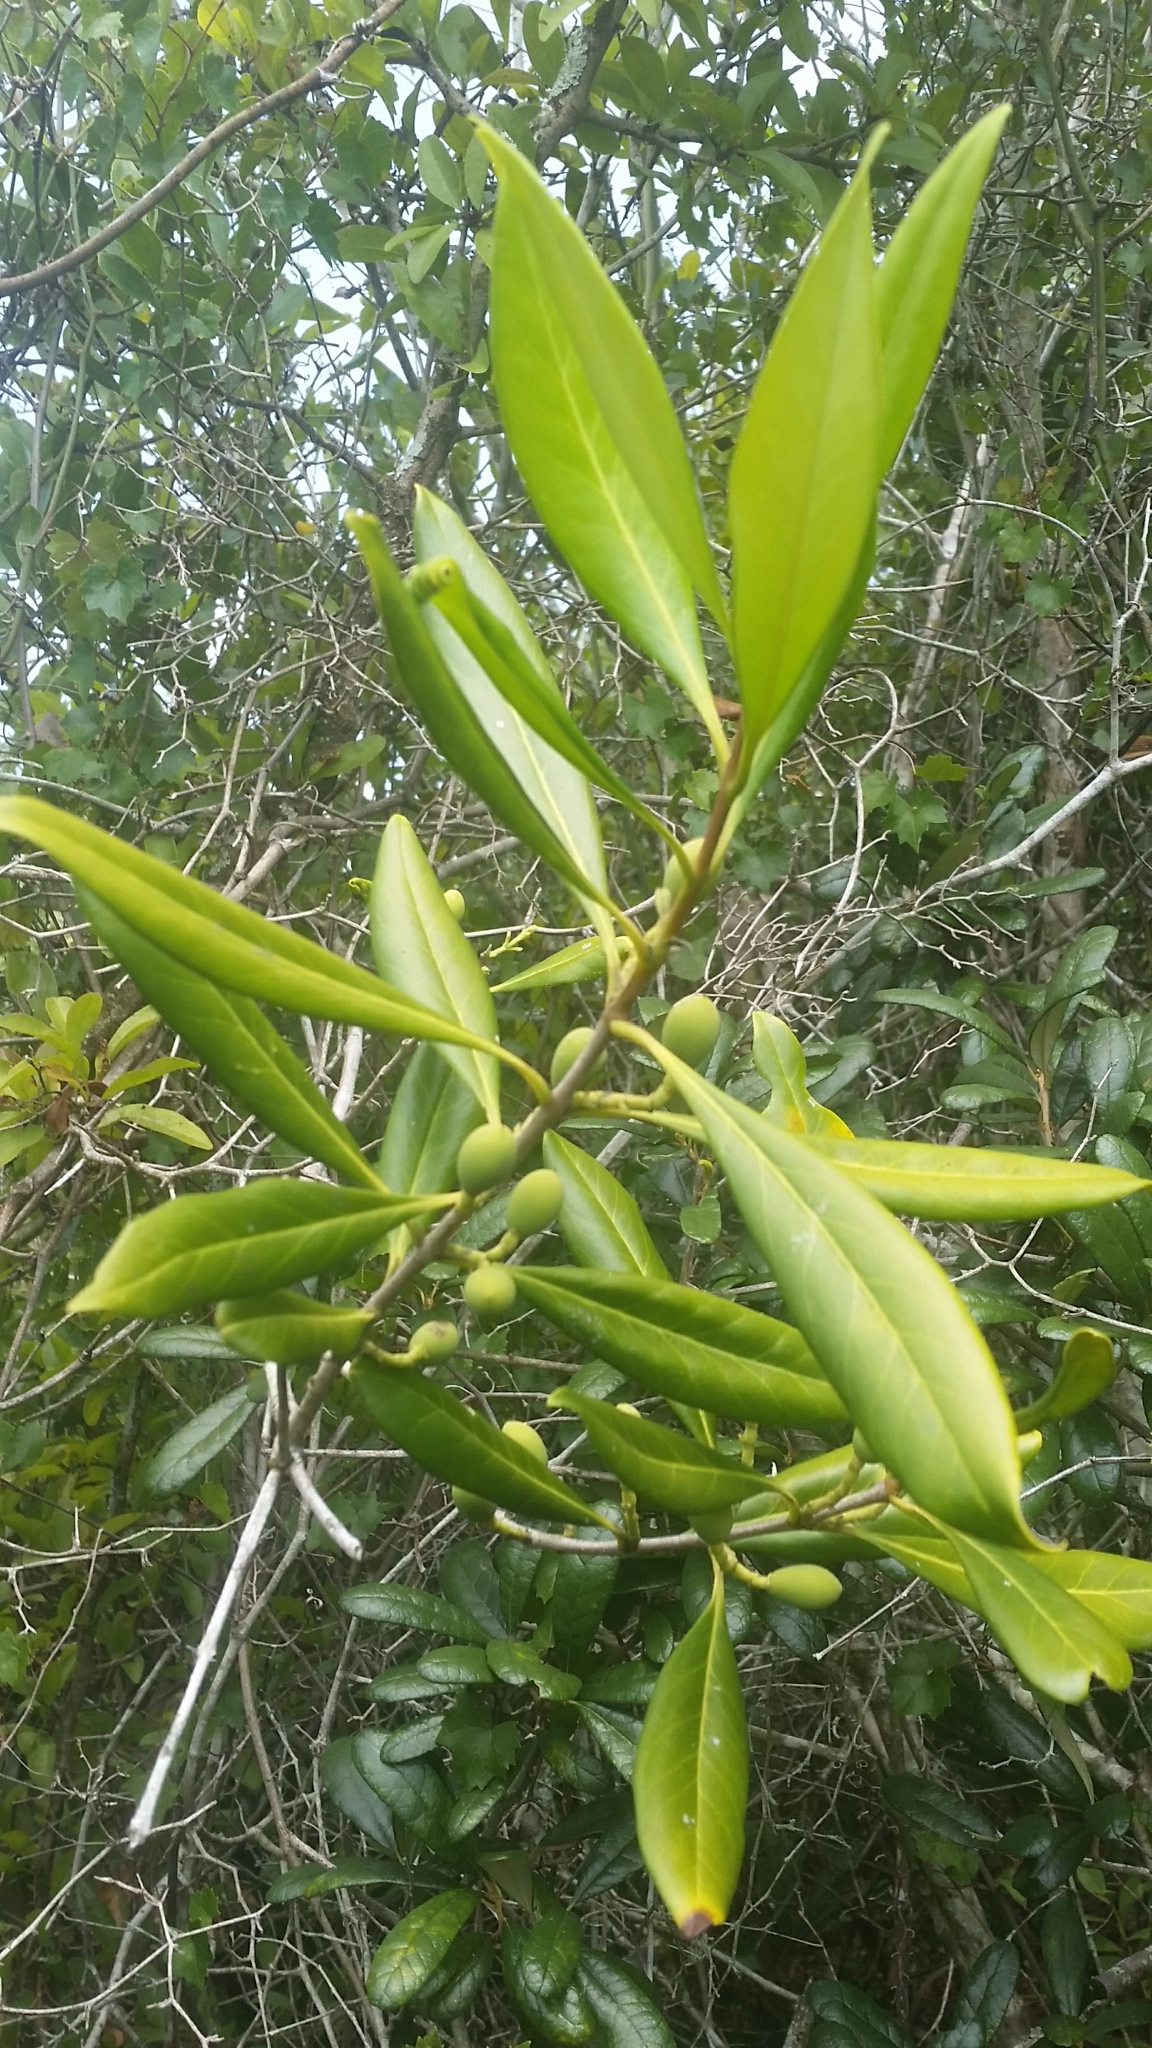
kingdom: Plantae
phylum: Tracheophyta
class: Magnoliopsida
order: Lamiales
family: Oleaceae
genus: Cartrema
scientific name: Cartrema floridana
